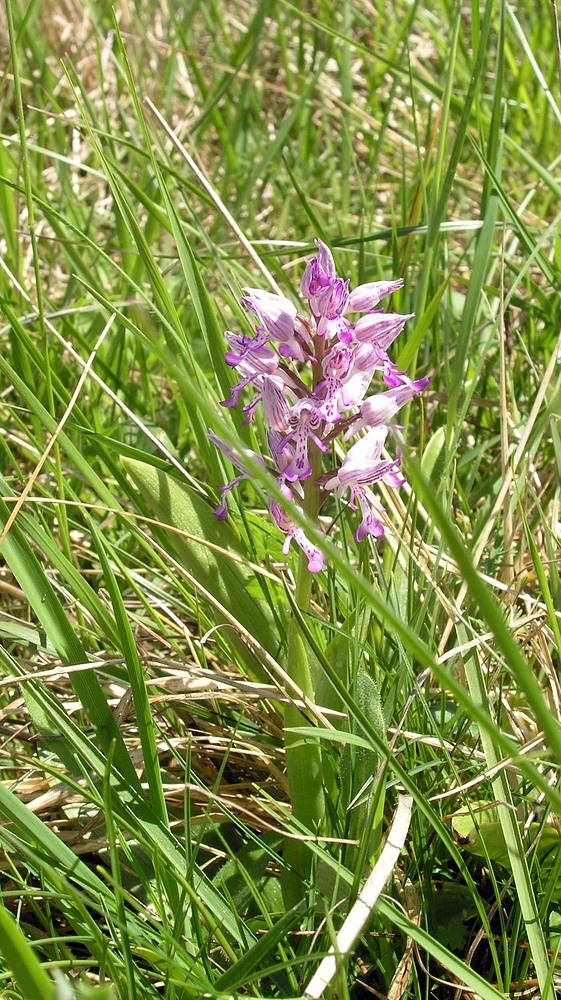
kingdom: Plantae
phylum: Tracheophyta
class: Liliopsida
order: Asparagales
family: Orchidaceae
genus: Orchis
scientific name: Orchis militaris
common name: Military orchid
